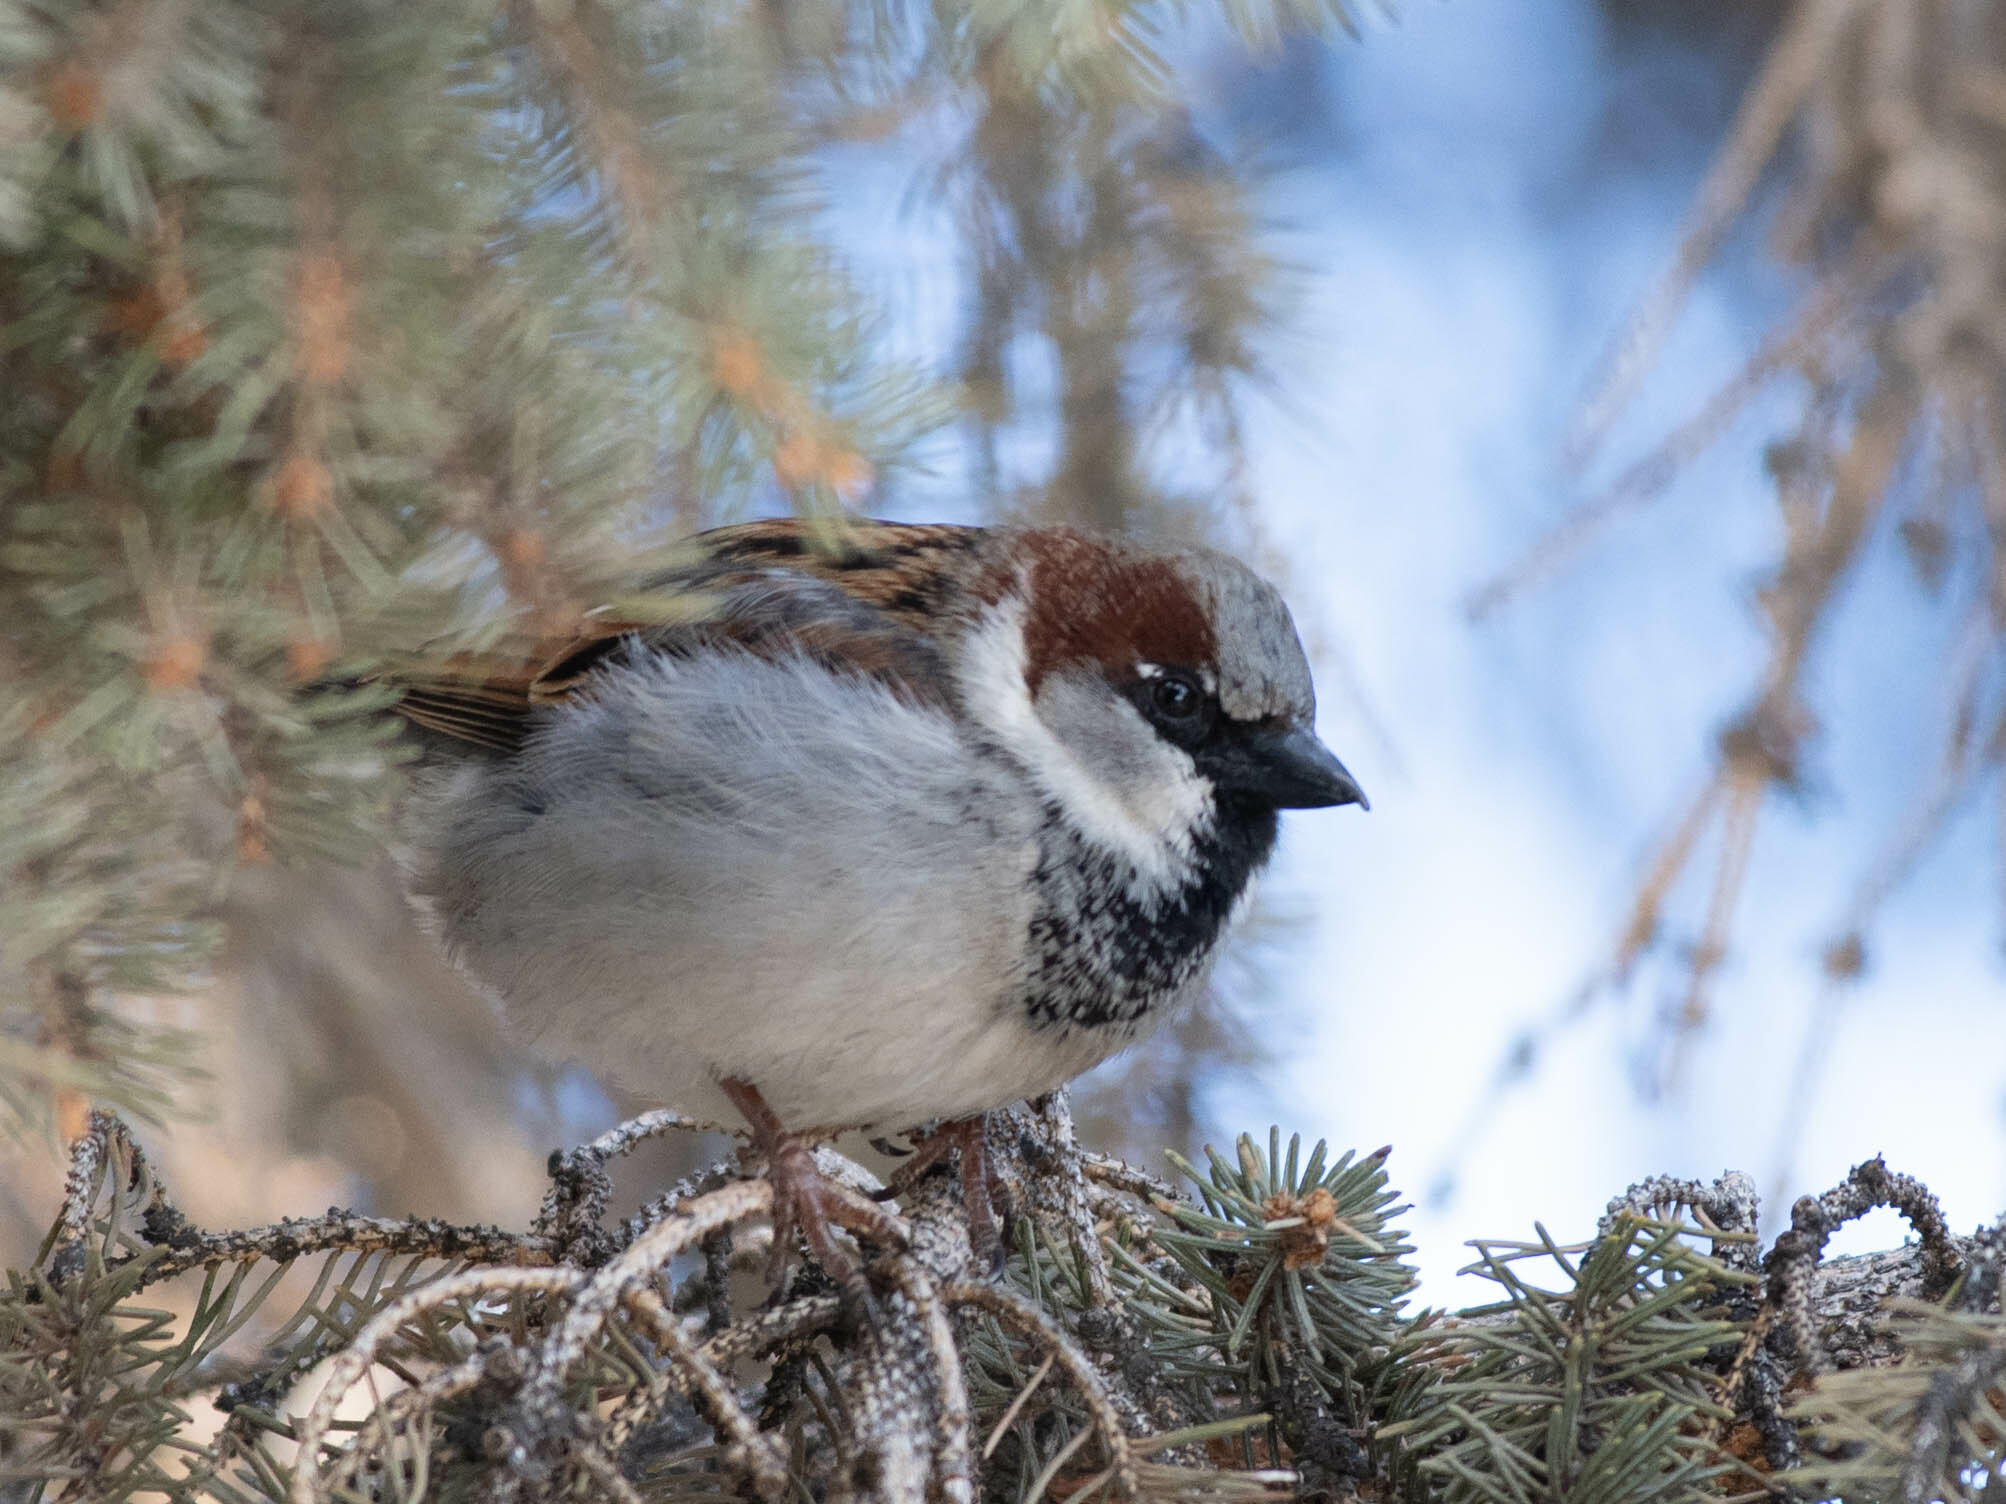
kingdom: Animalia
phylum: Chordata
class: Aves
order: Passeriformes
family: Passeridae
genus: Passer
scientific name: Passer domesticus
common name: House sparrow
